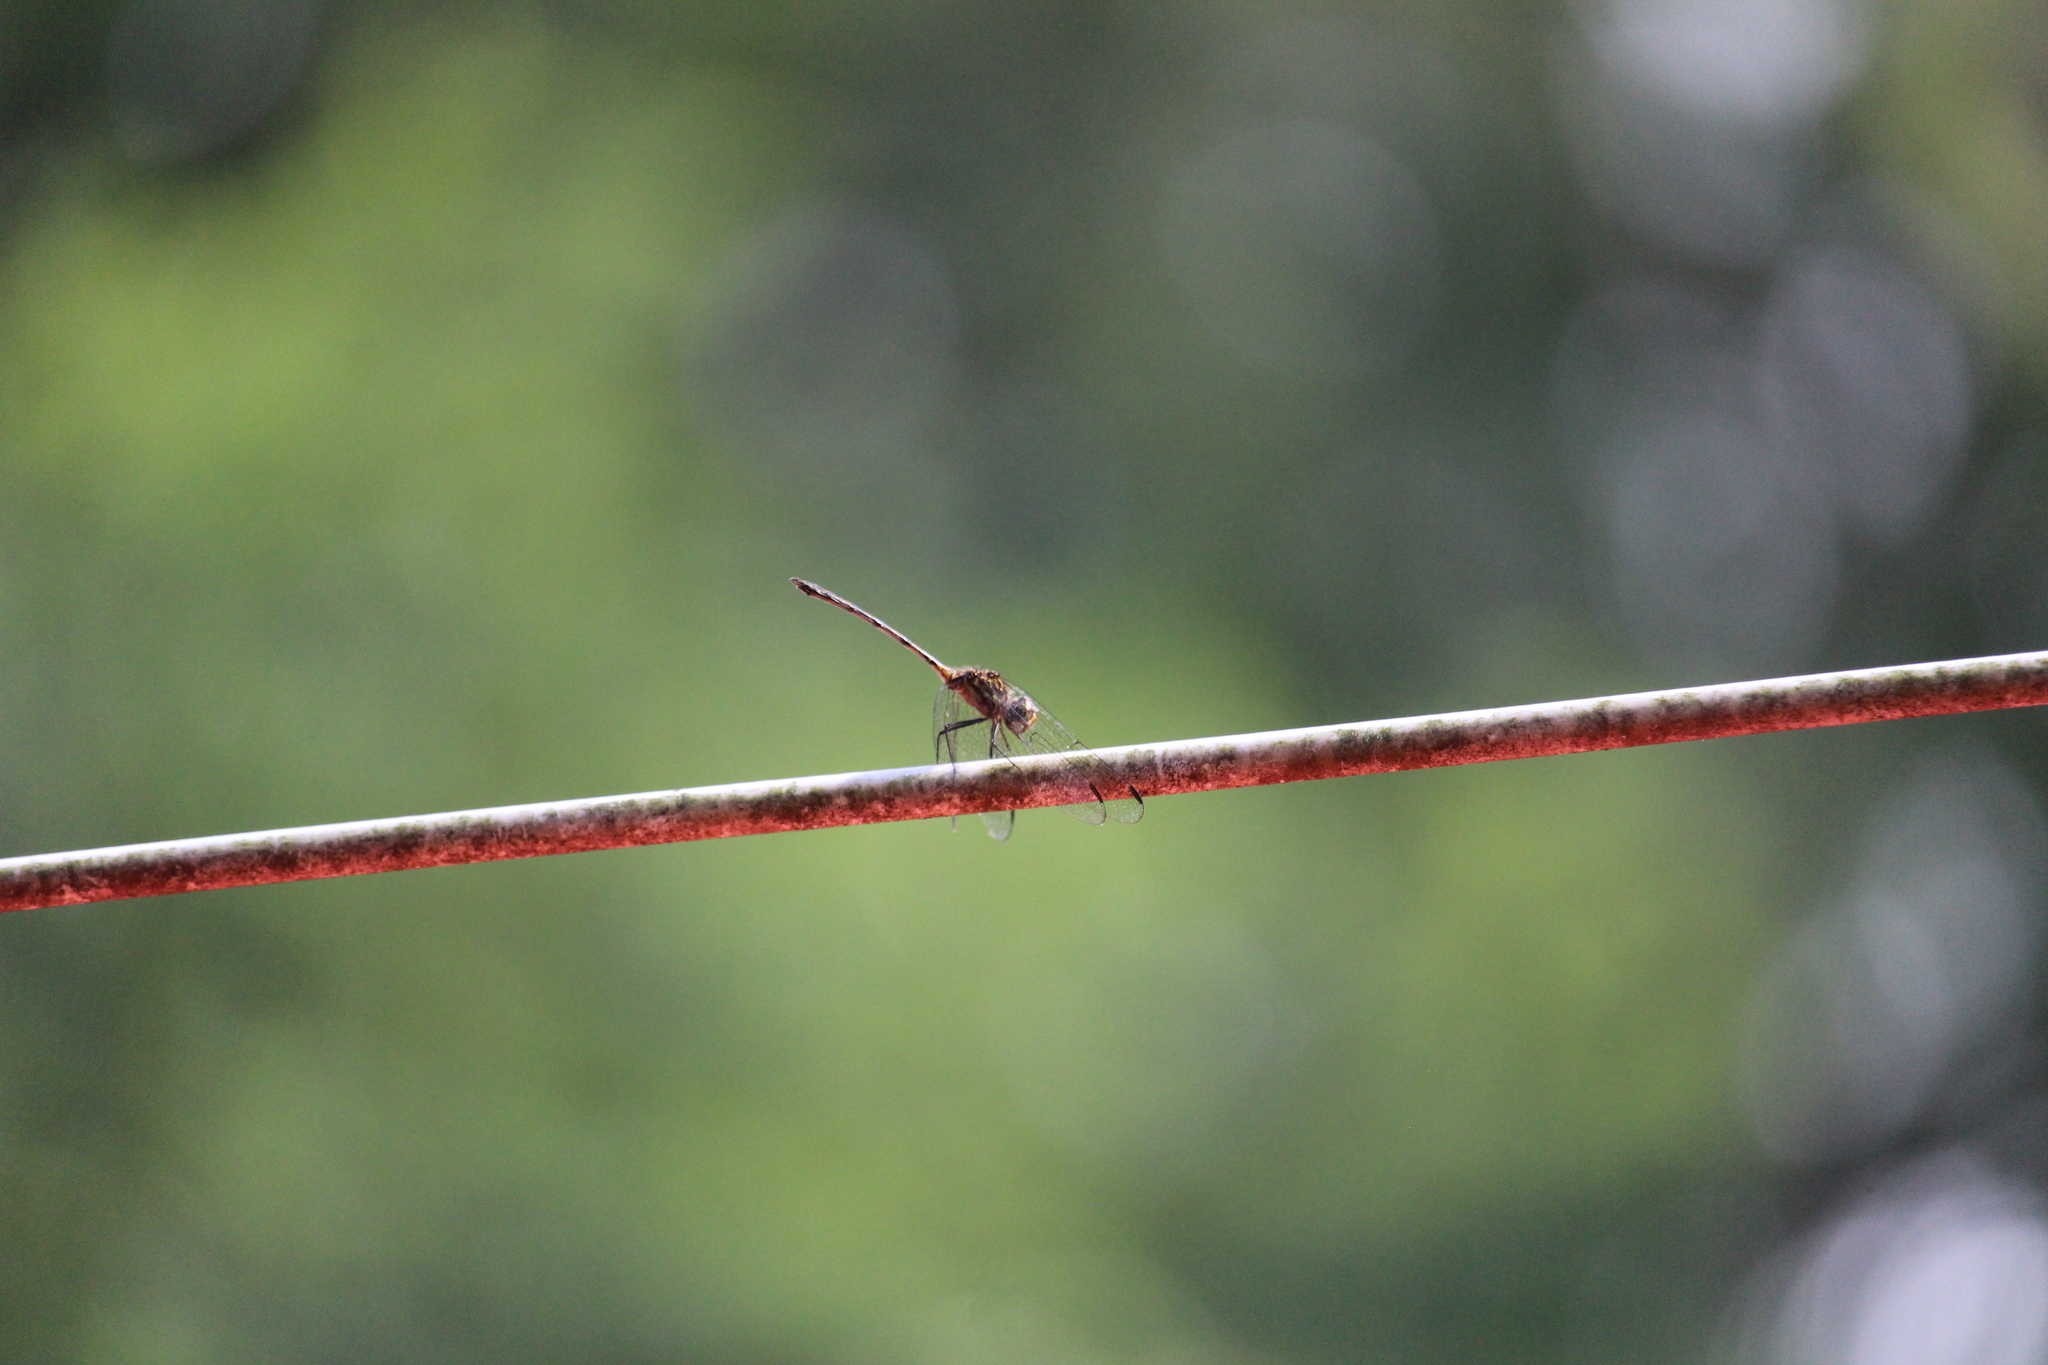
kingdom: Animalia
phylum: Arthropoda
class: Insecta
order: Odonata
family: Libellulidae
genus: Dythemis
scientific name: Dythemis sterilis
